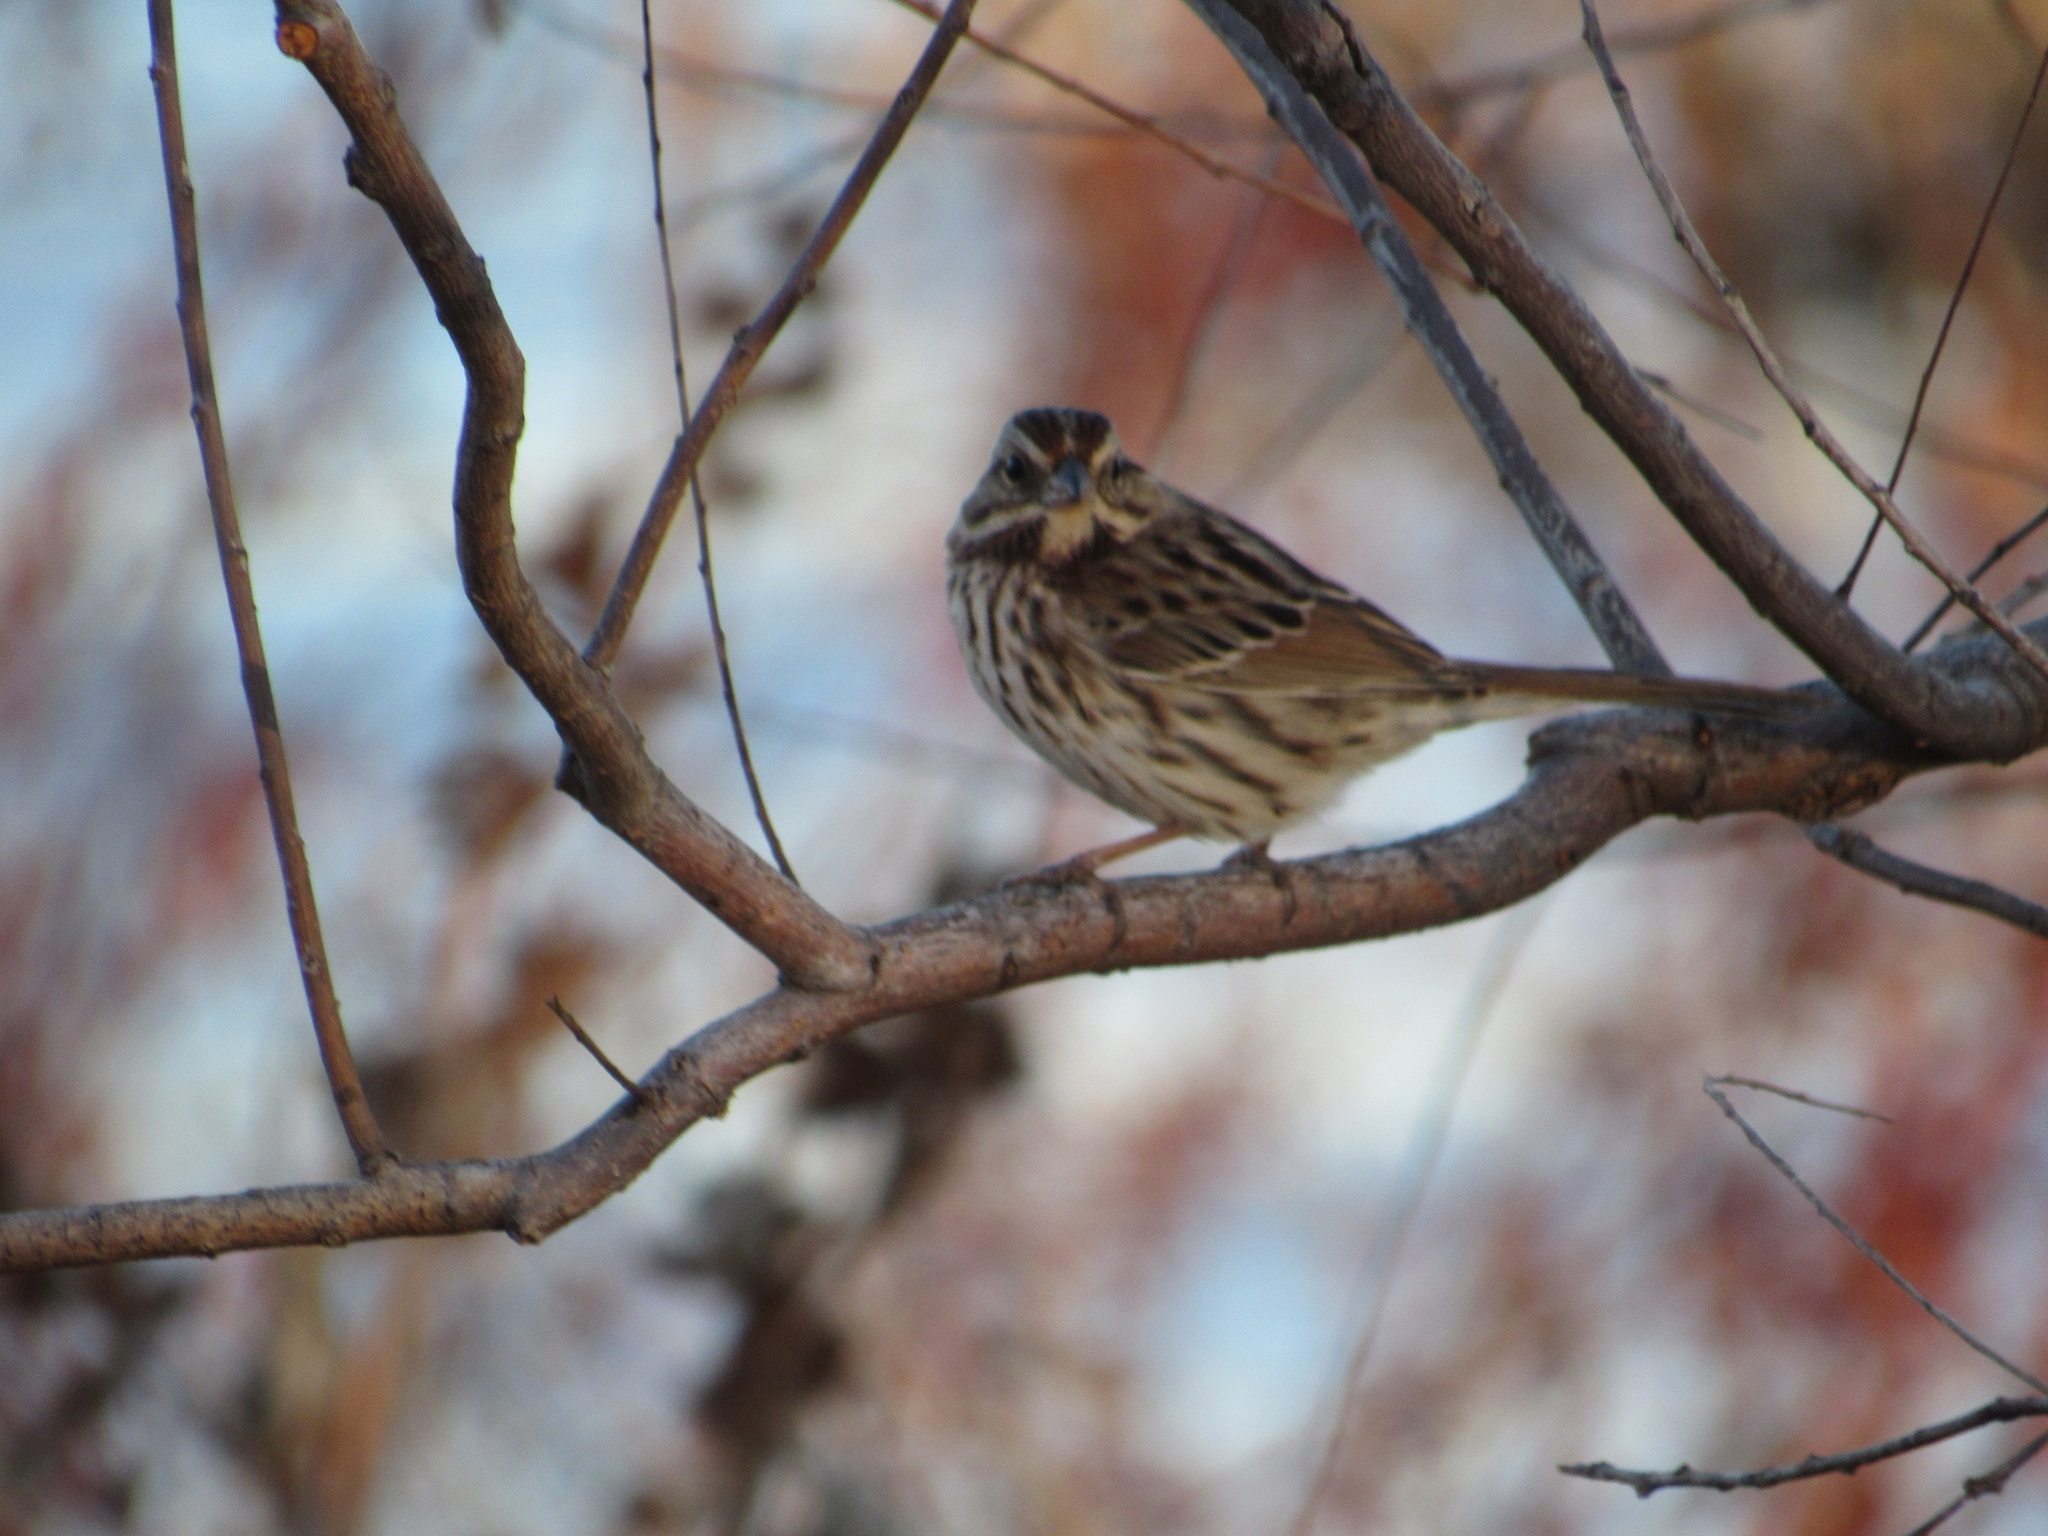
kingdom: Animalia
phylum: Chordata
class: Aves
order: Passeriformes
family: Passerellidae
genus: Melospiza
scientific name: Melospiza melodia
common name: Song sparrow
